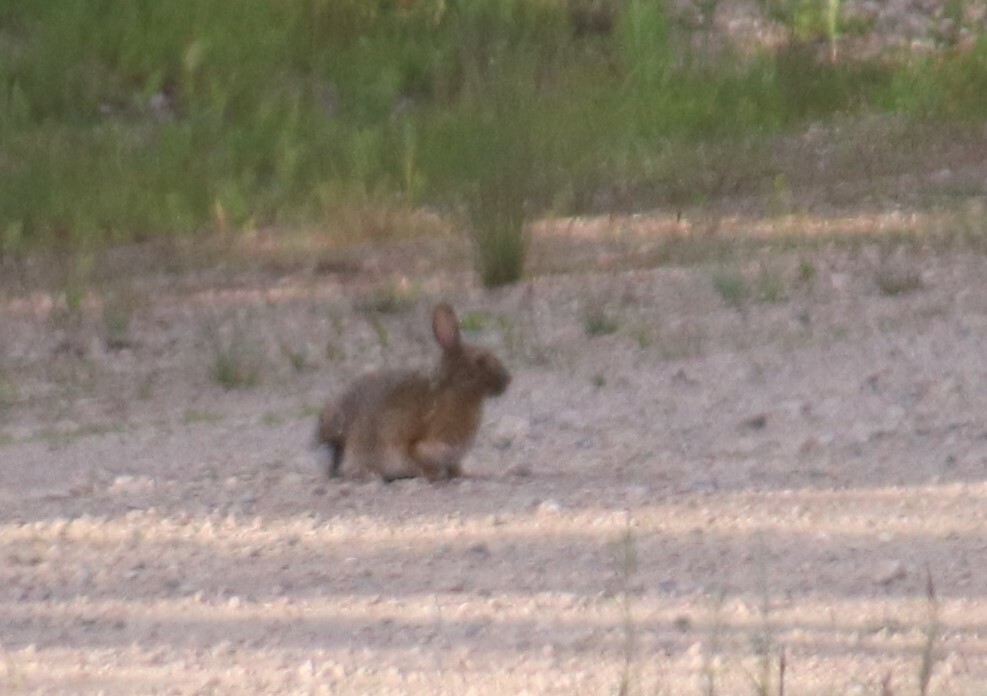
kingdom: Animalia
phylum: Chordata
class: Mammalia
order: Lagomorpha
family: Leporidae
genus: Lepus
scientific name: Lepus americanus
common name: Snowshoe hare
